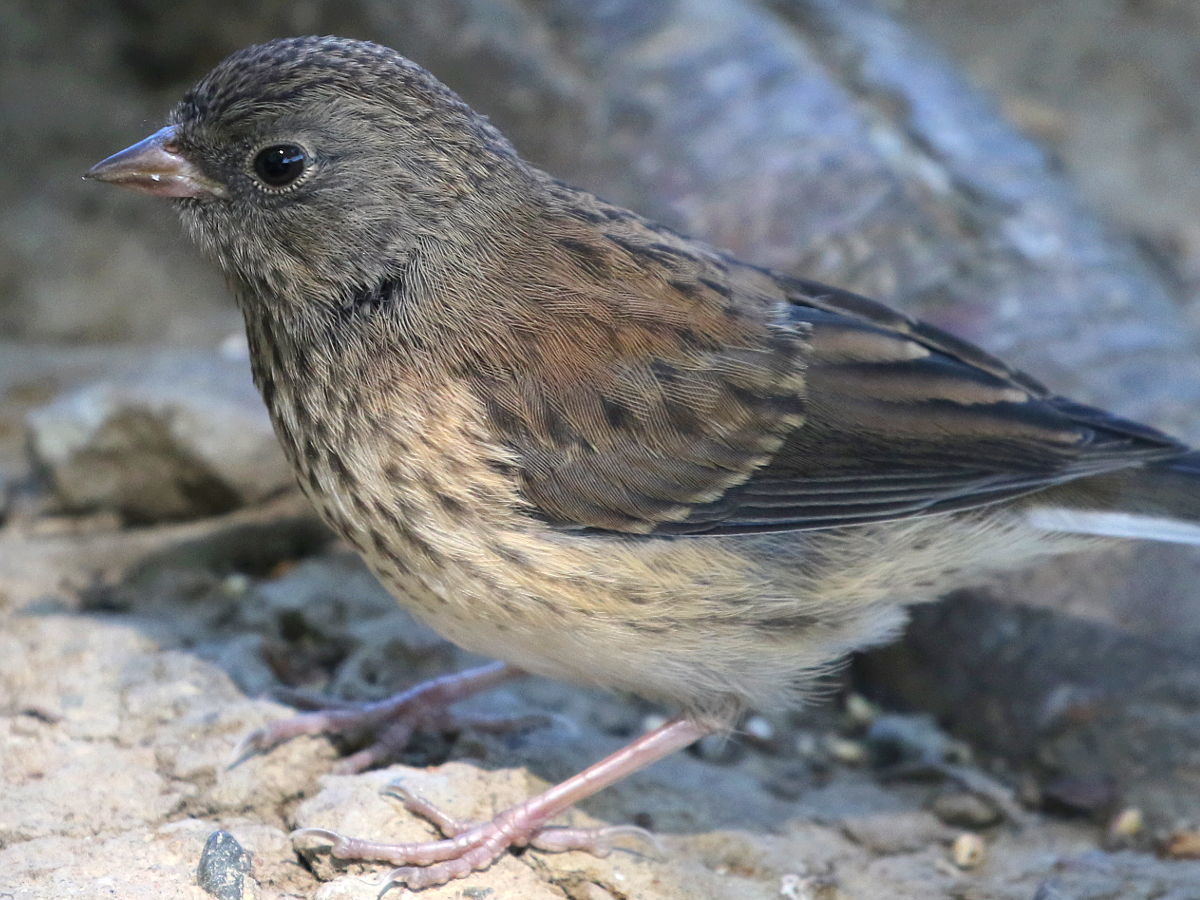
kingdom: Animalia
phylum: Chordata
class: Aves
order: Passeriformes
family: Passerellidae
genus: Junco
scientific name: Junco hyemalis
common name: Dark-eyed junco
